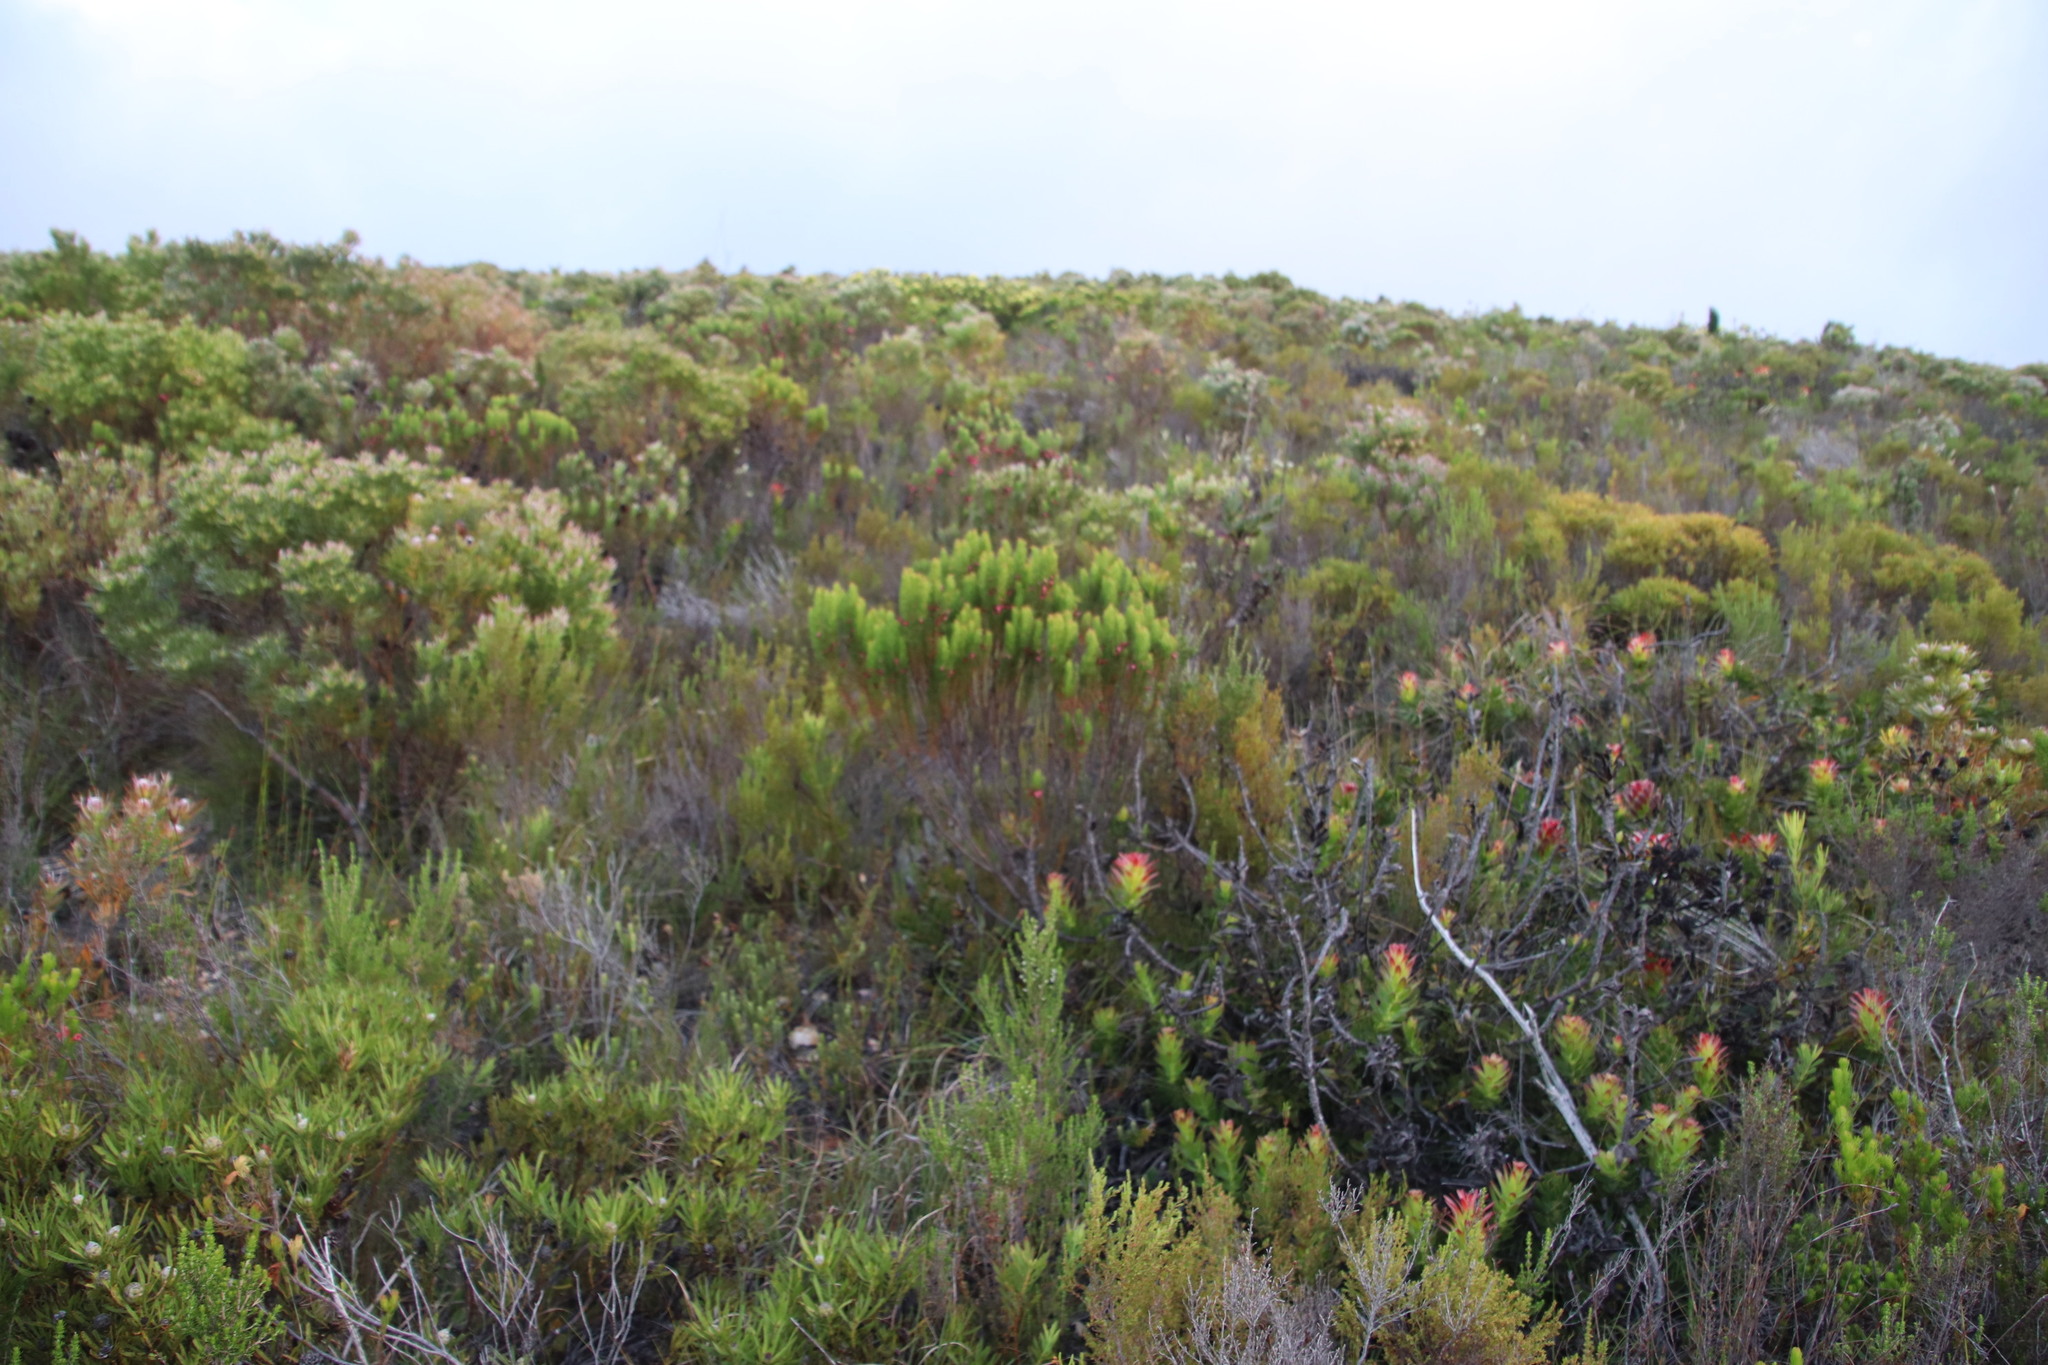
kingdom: Plantae
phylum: Tracheophyta
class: Magnoliopsida
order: Ericales
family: Ericaceae
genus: Erica
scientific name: Erica plukenetii
